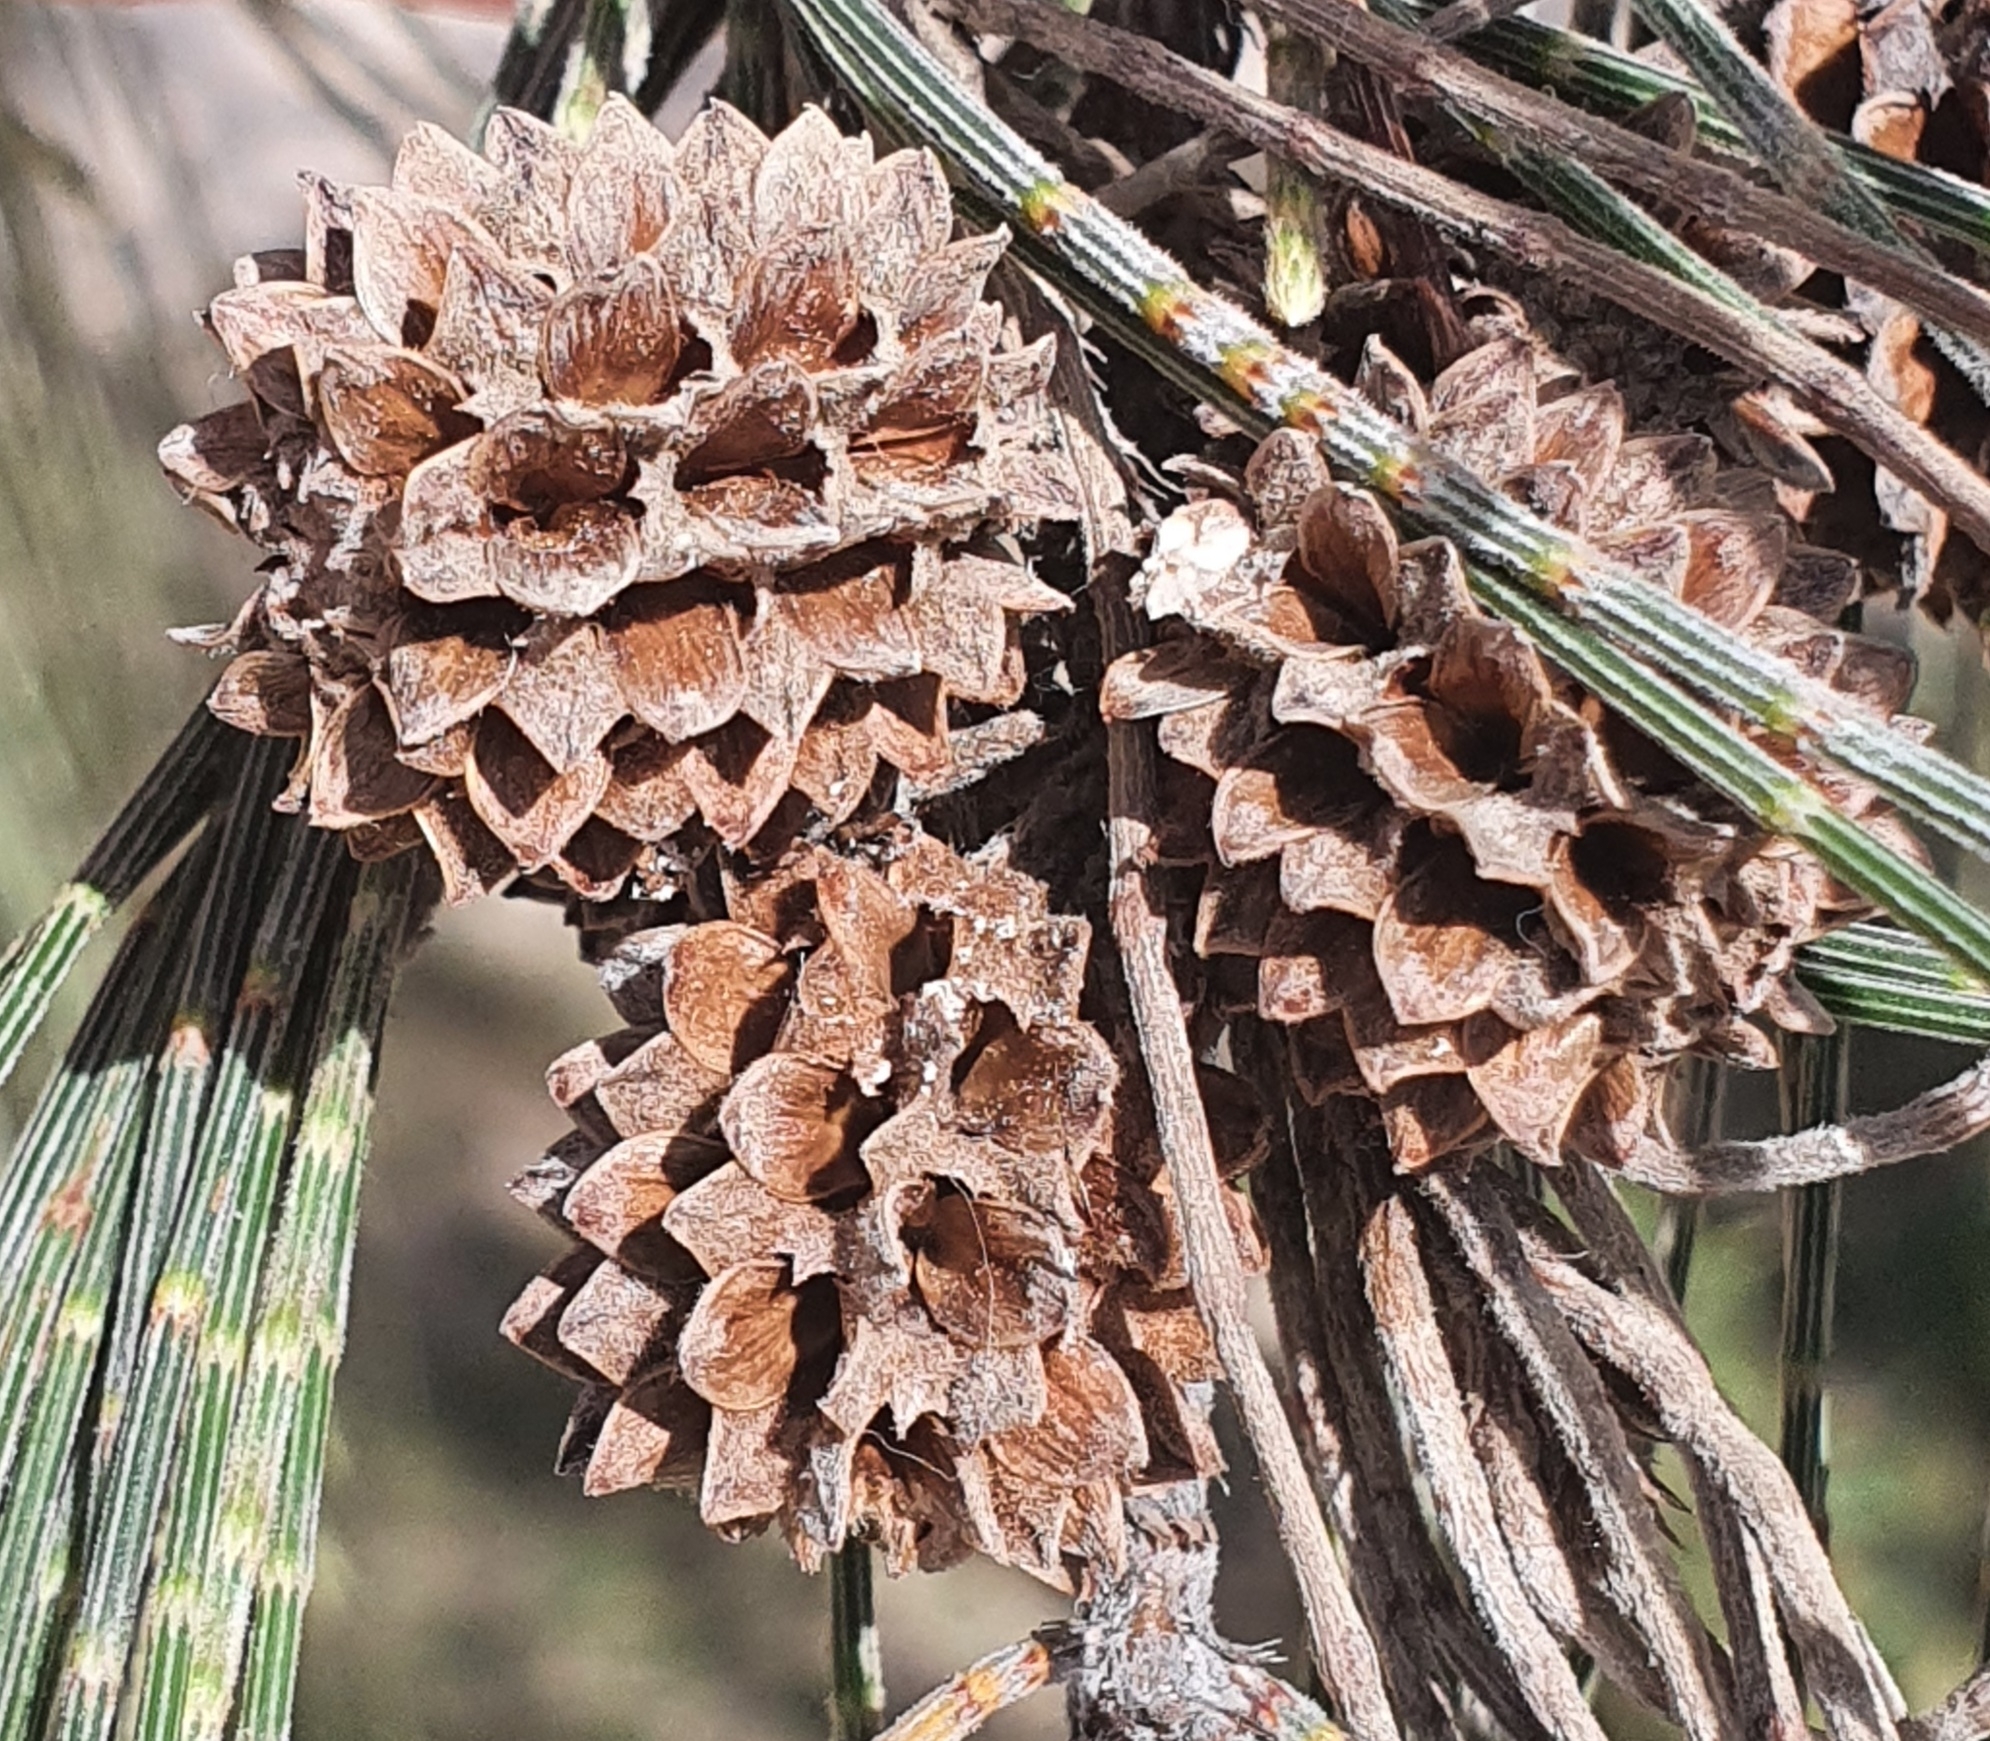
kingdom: Plantae
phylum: Tracheophyta
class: Magnoliopsida
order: Fagales
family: Casuarinaceae
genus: Casuarina
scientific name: Casuarina equisetifolia
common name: Beach sheoak
